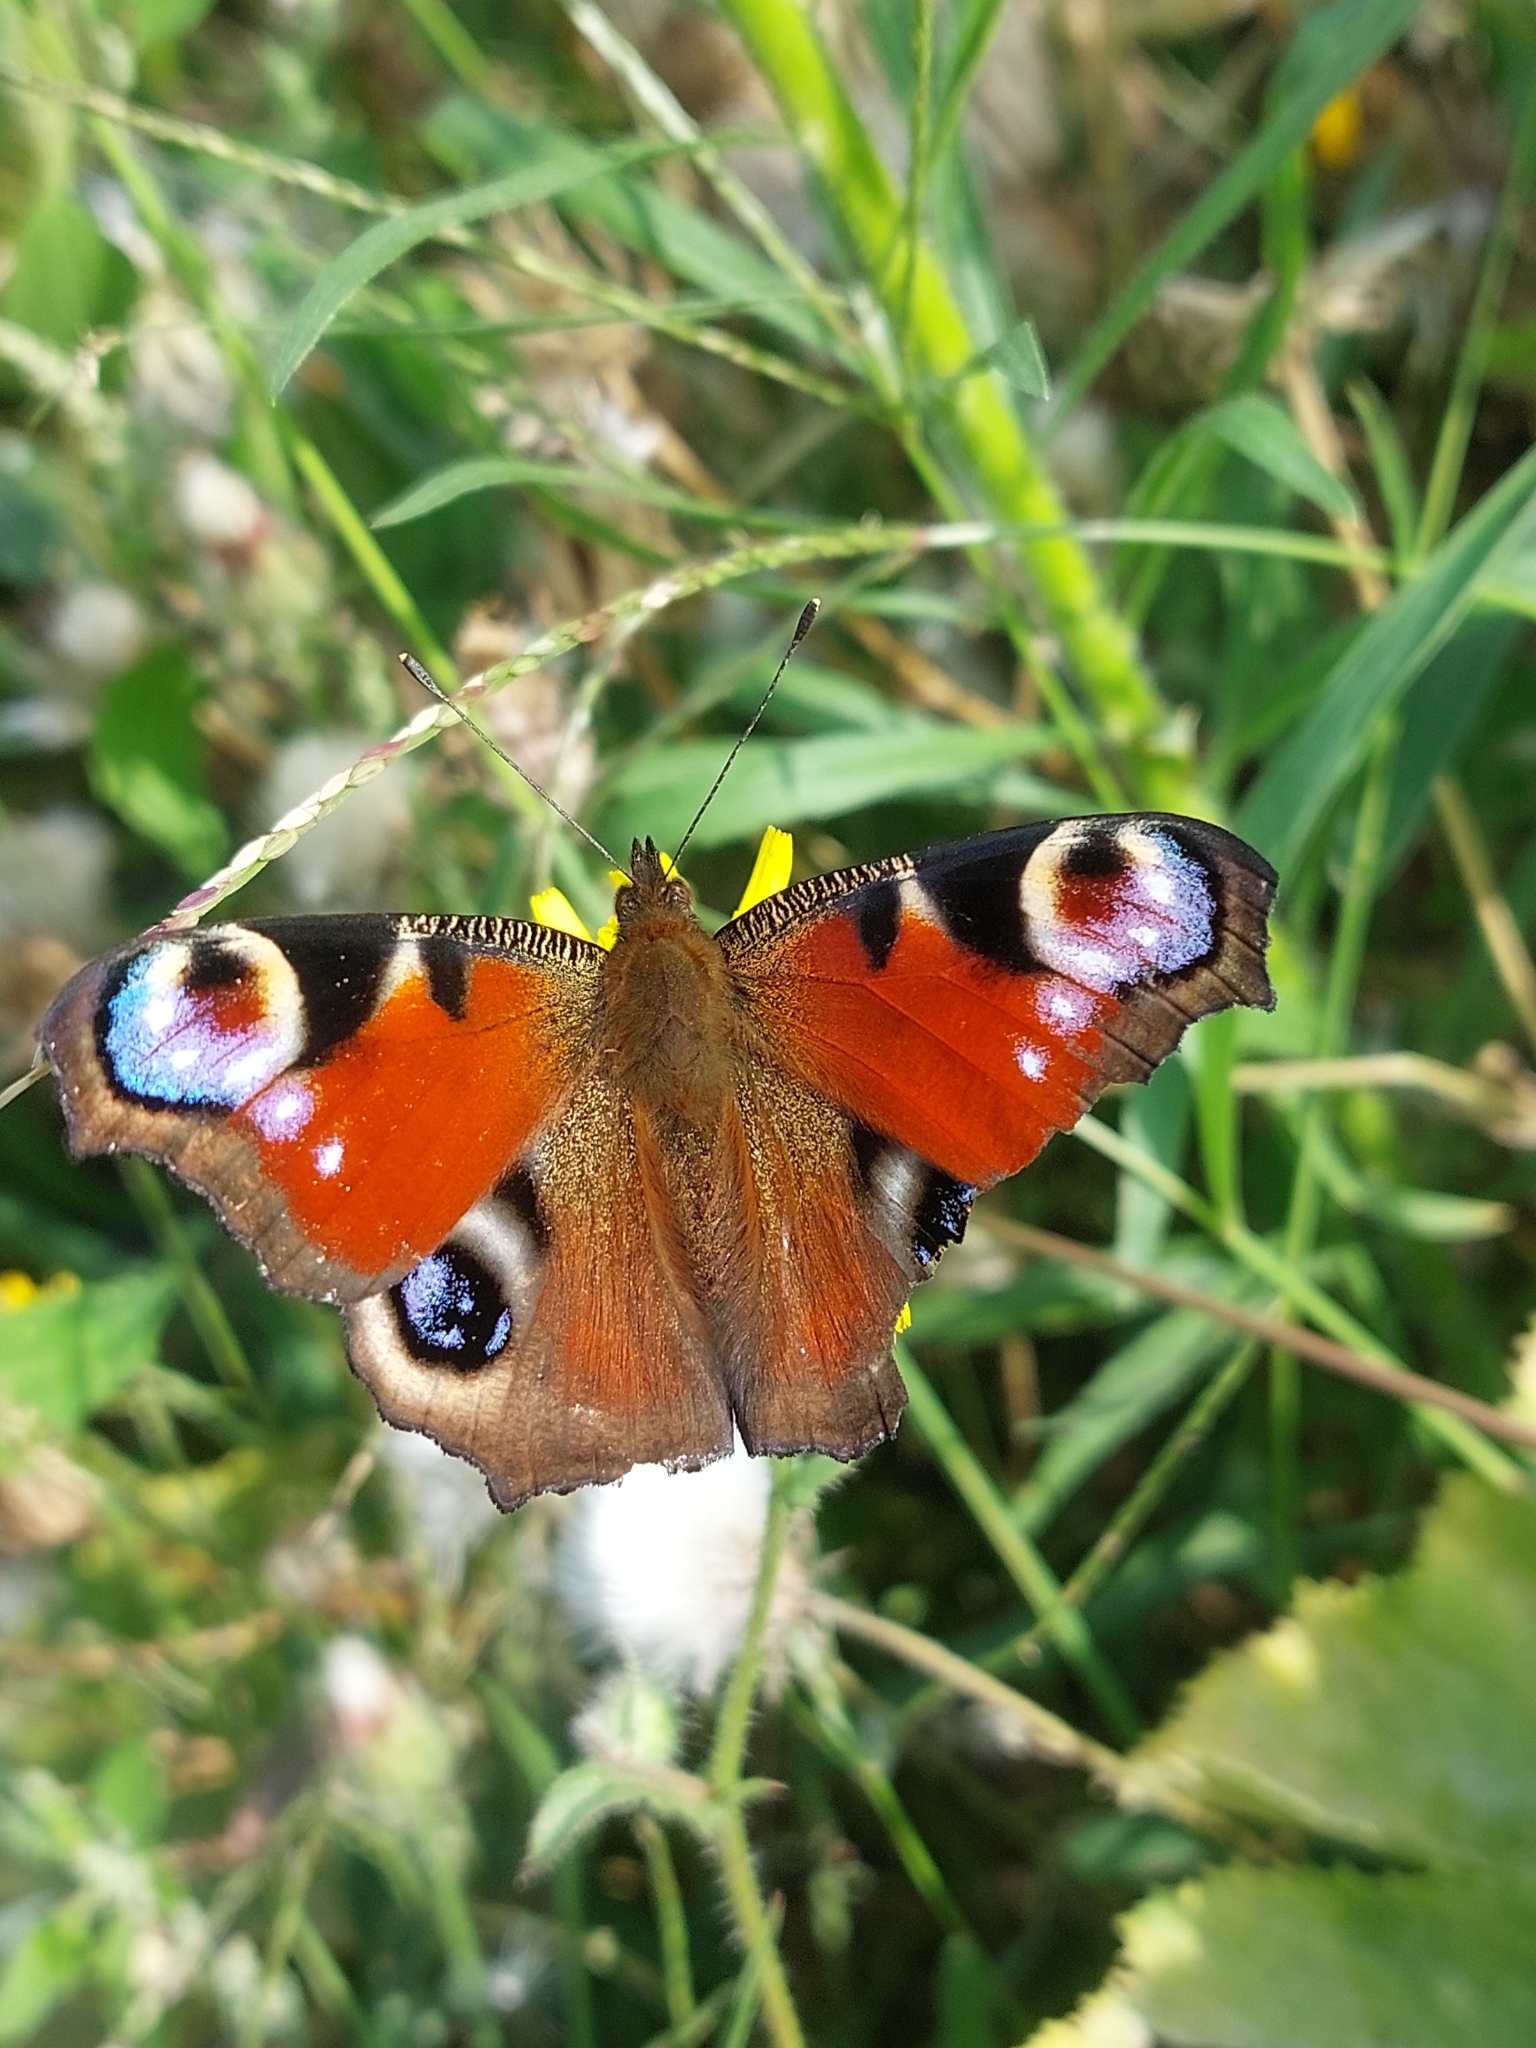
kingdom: Animalia
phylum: Arthropoda
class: Insecta
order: Lepidoptera
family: Nymphalidae
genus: Aglais
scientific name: Aglais io
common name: Peacock
